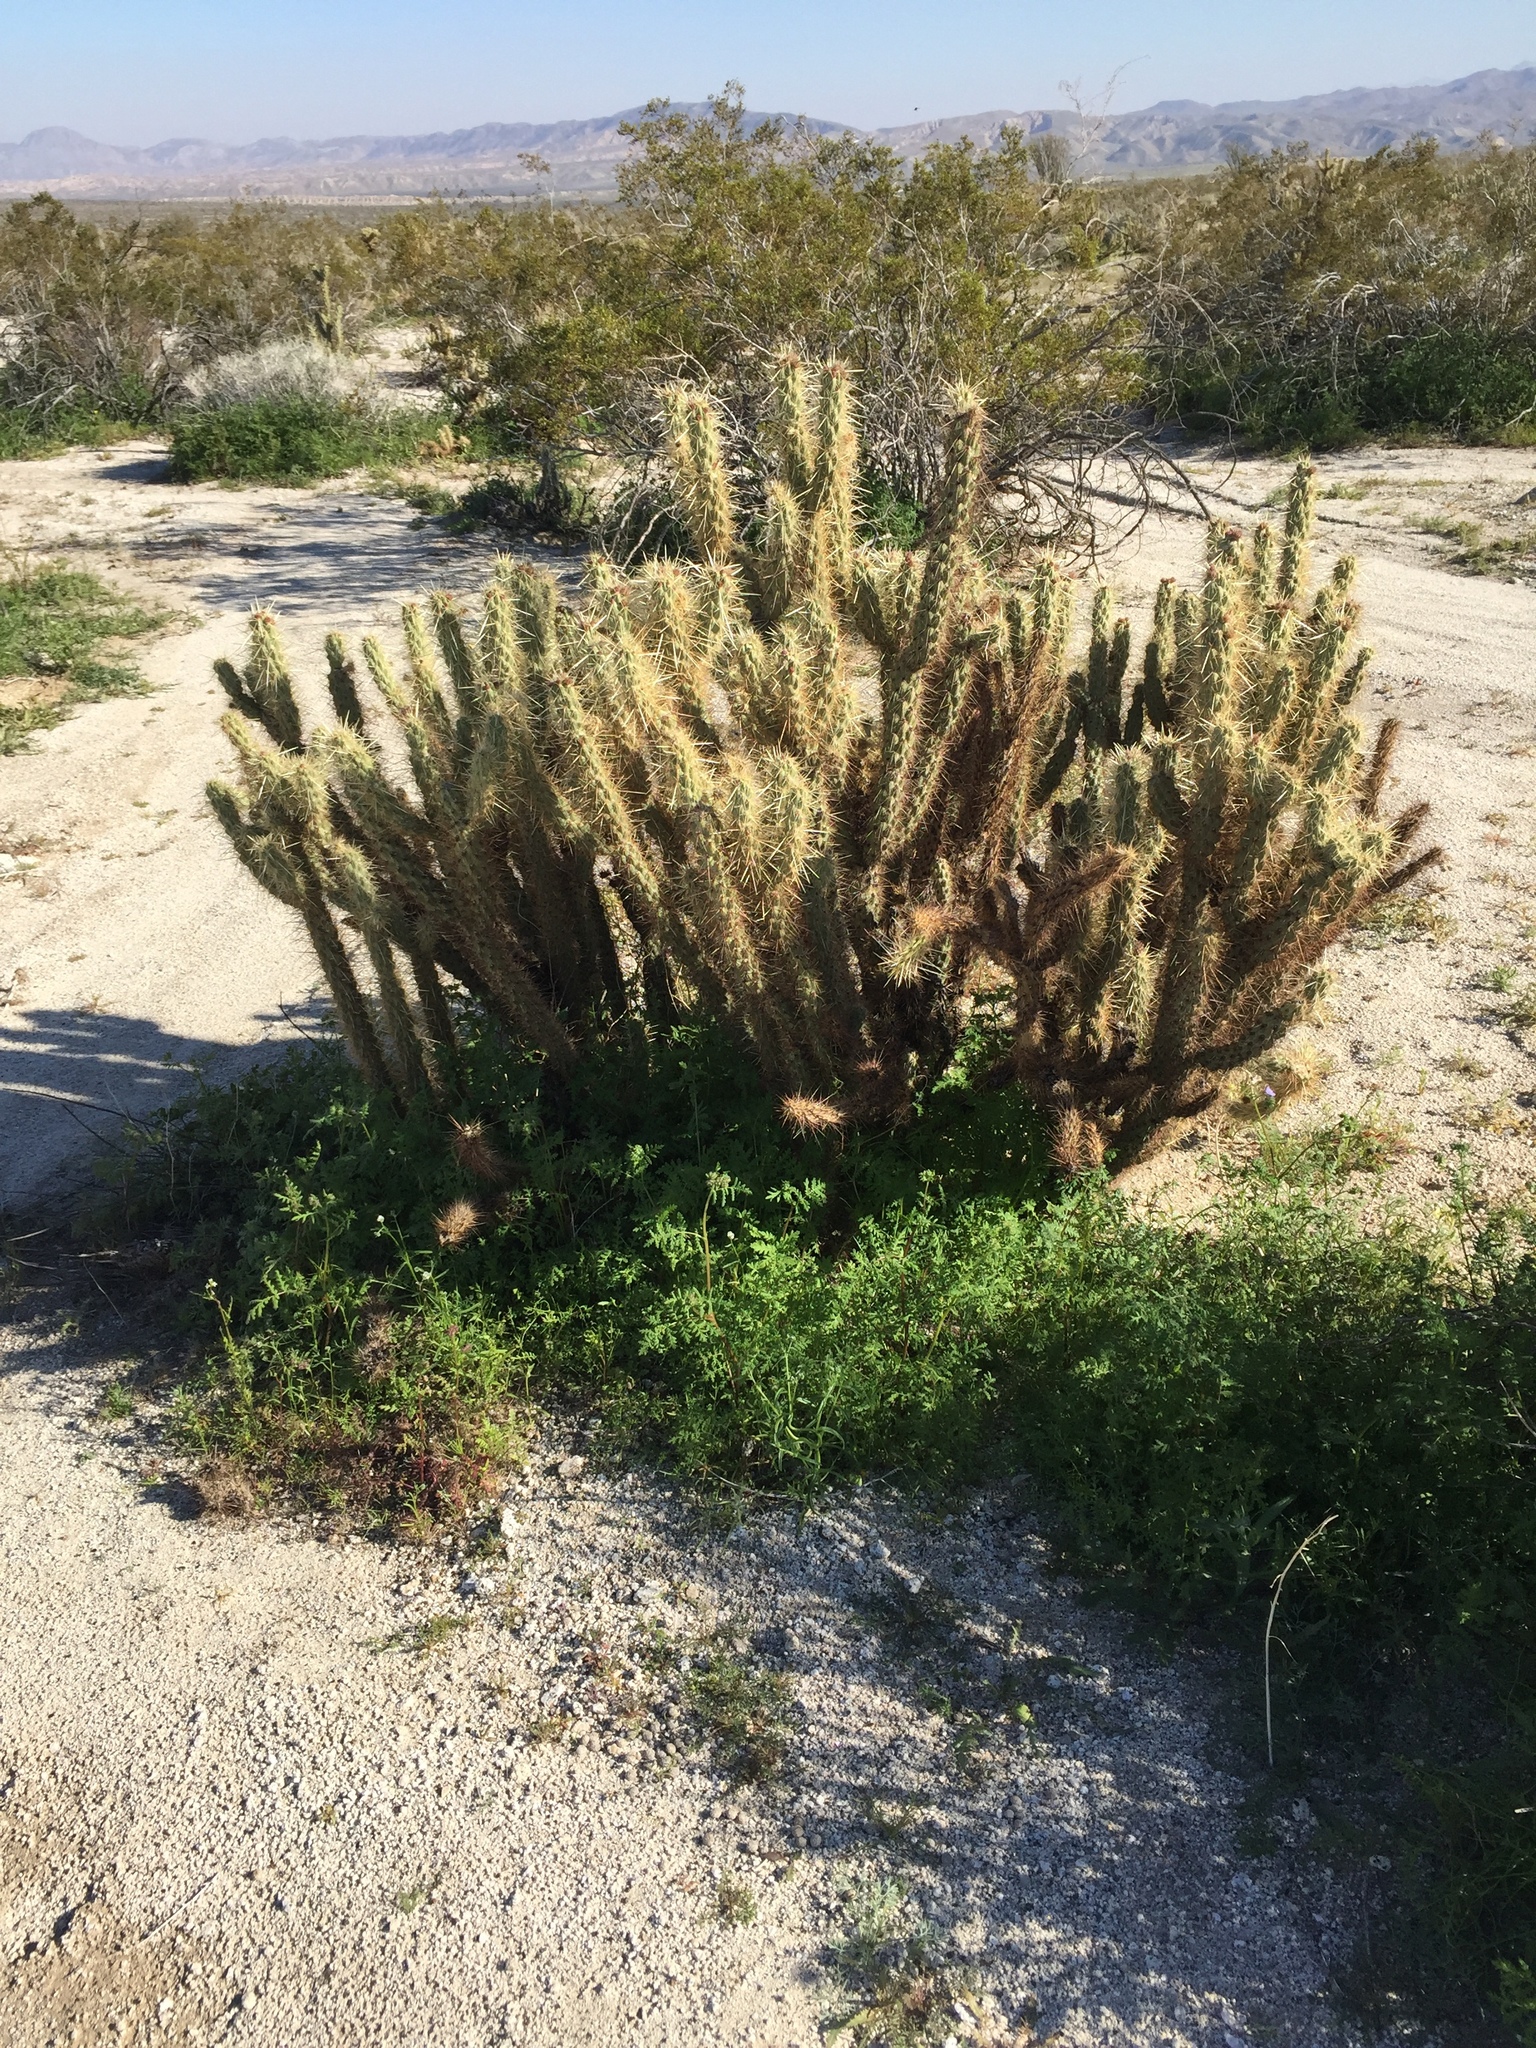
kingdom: Plantae
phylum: Tracheophyta
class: Magnoliopsida
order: Caryophyllales
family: Cactaceae
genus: Cylindropuntia
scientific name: Cylindropuntia ganderi
